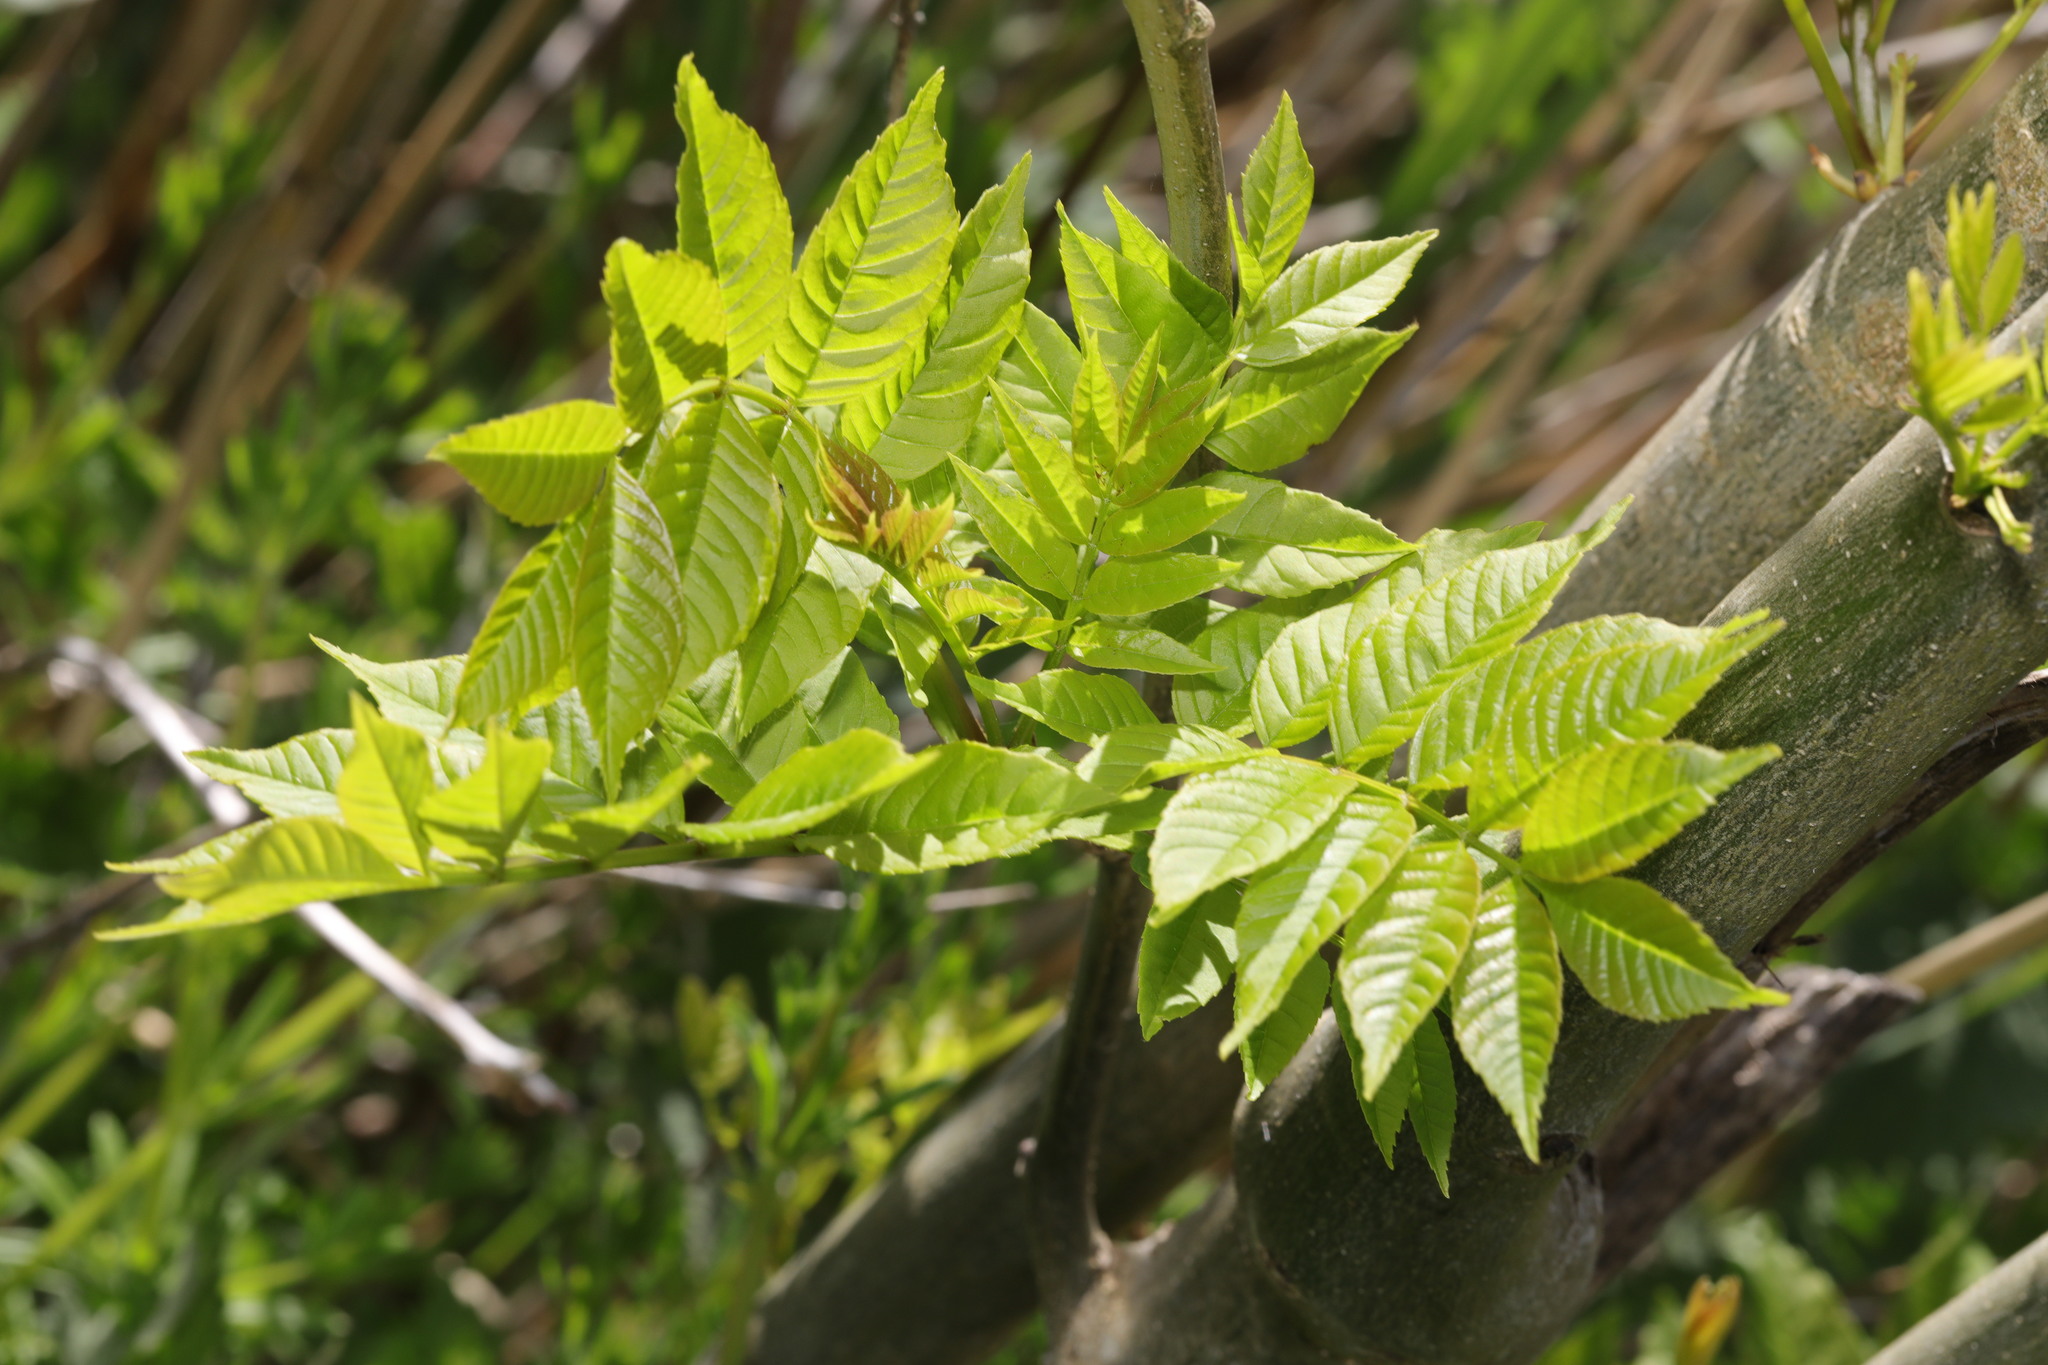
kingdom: Plantae
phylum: Tracheophyta
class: Magnoliopsida
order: Lamiales
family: Oleaceae
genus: Fraxinus
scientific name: Fraxinus excelsior
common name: European ash
